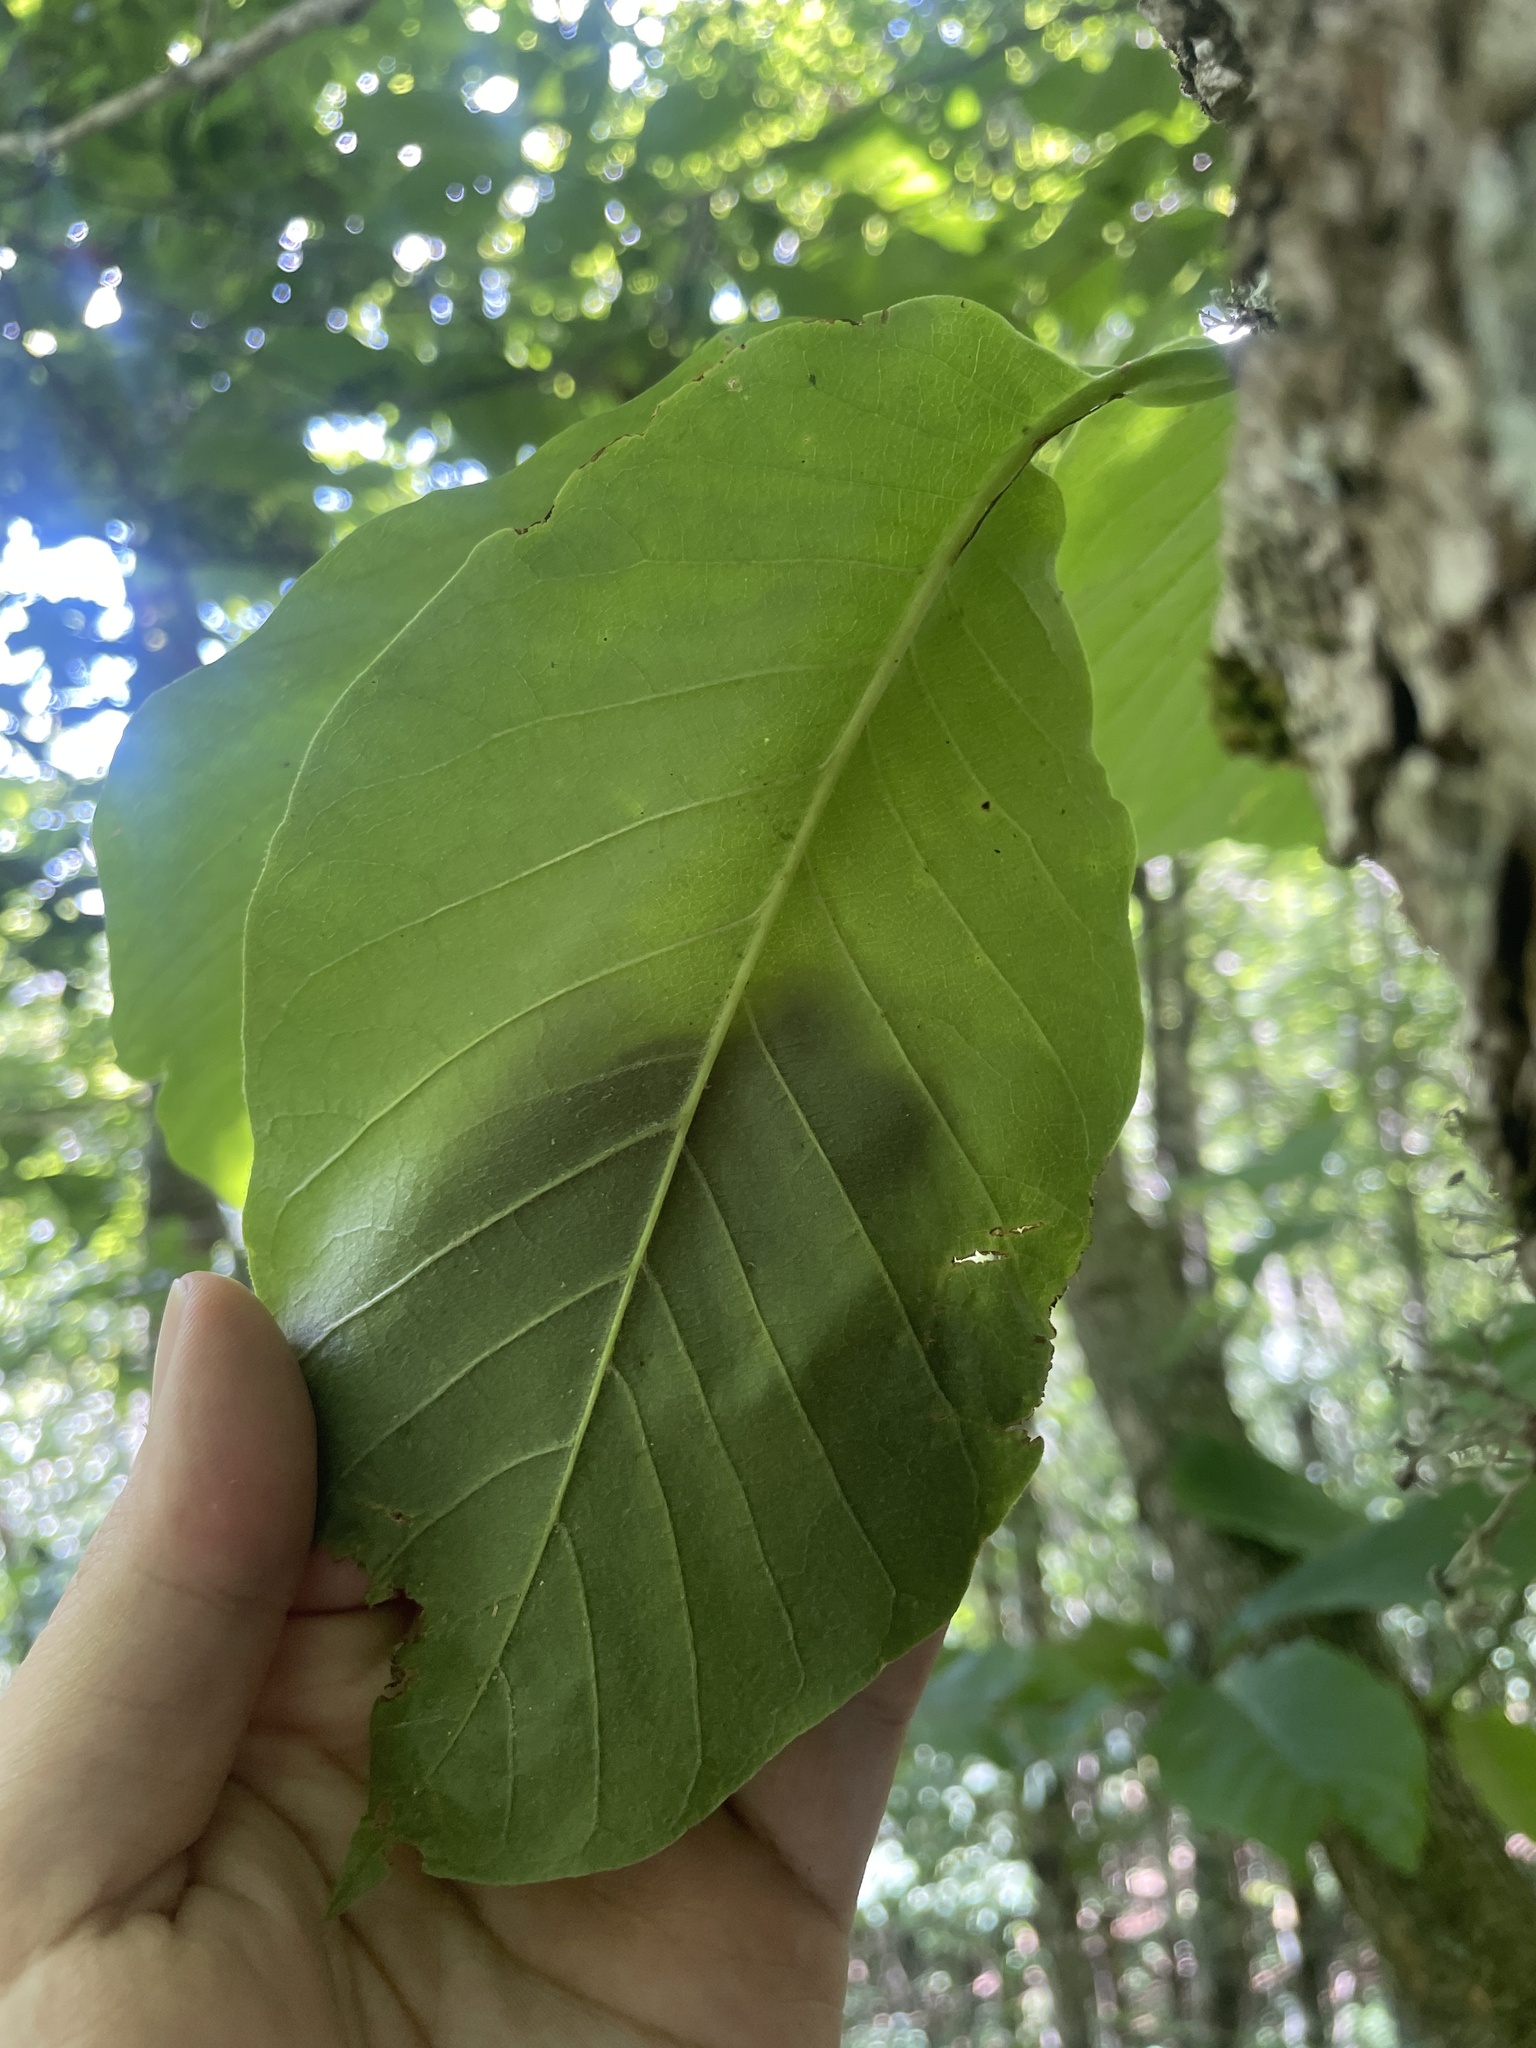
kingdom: Plantae
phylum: Tracheophyta
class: Magnoliopsida
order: Magnoliales
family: Magnoliaceae
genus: Magnolia
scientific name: Magnolia acuminata
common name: Cucumber magnolia
